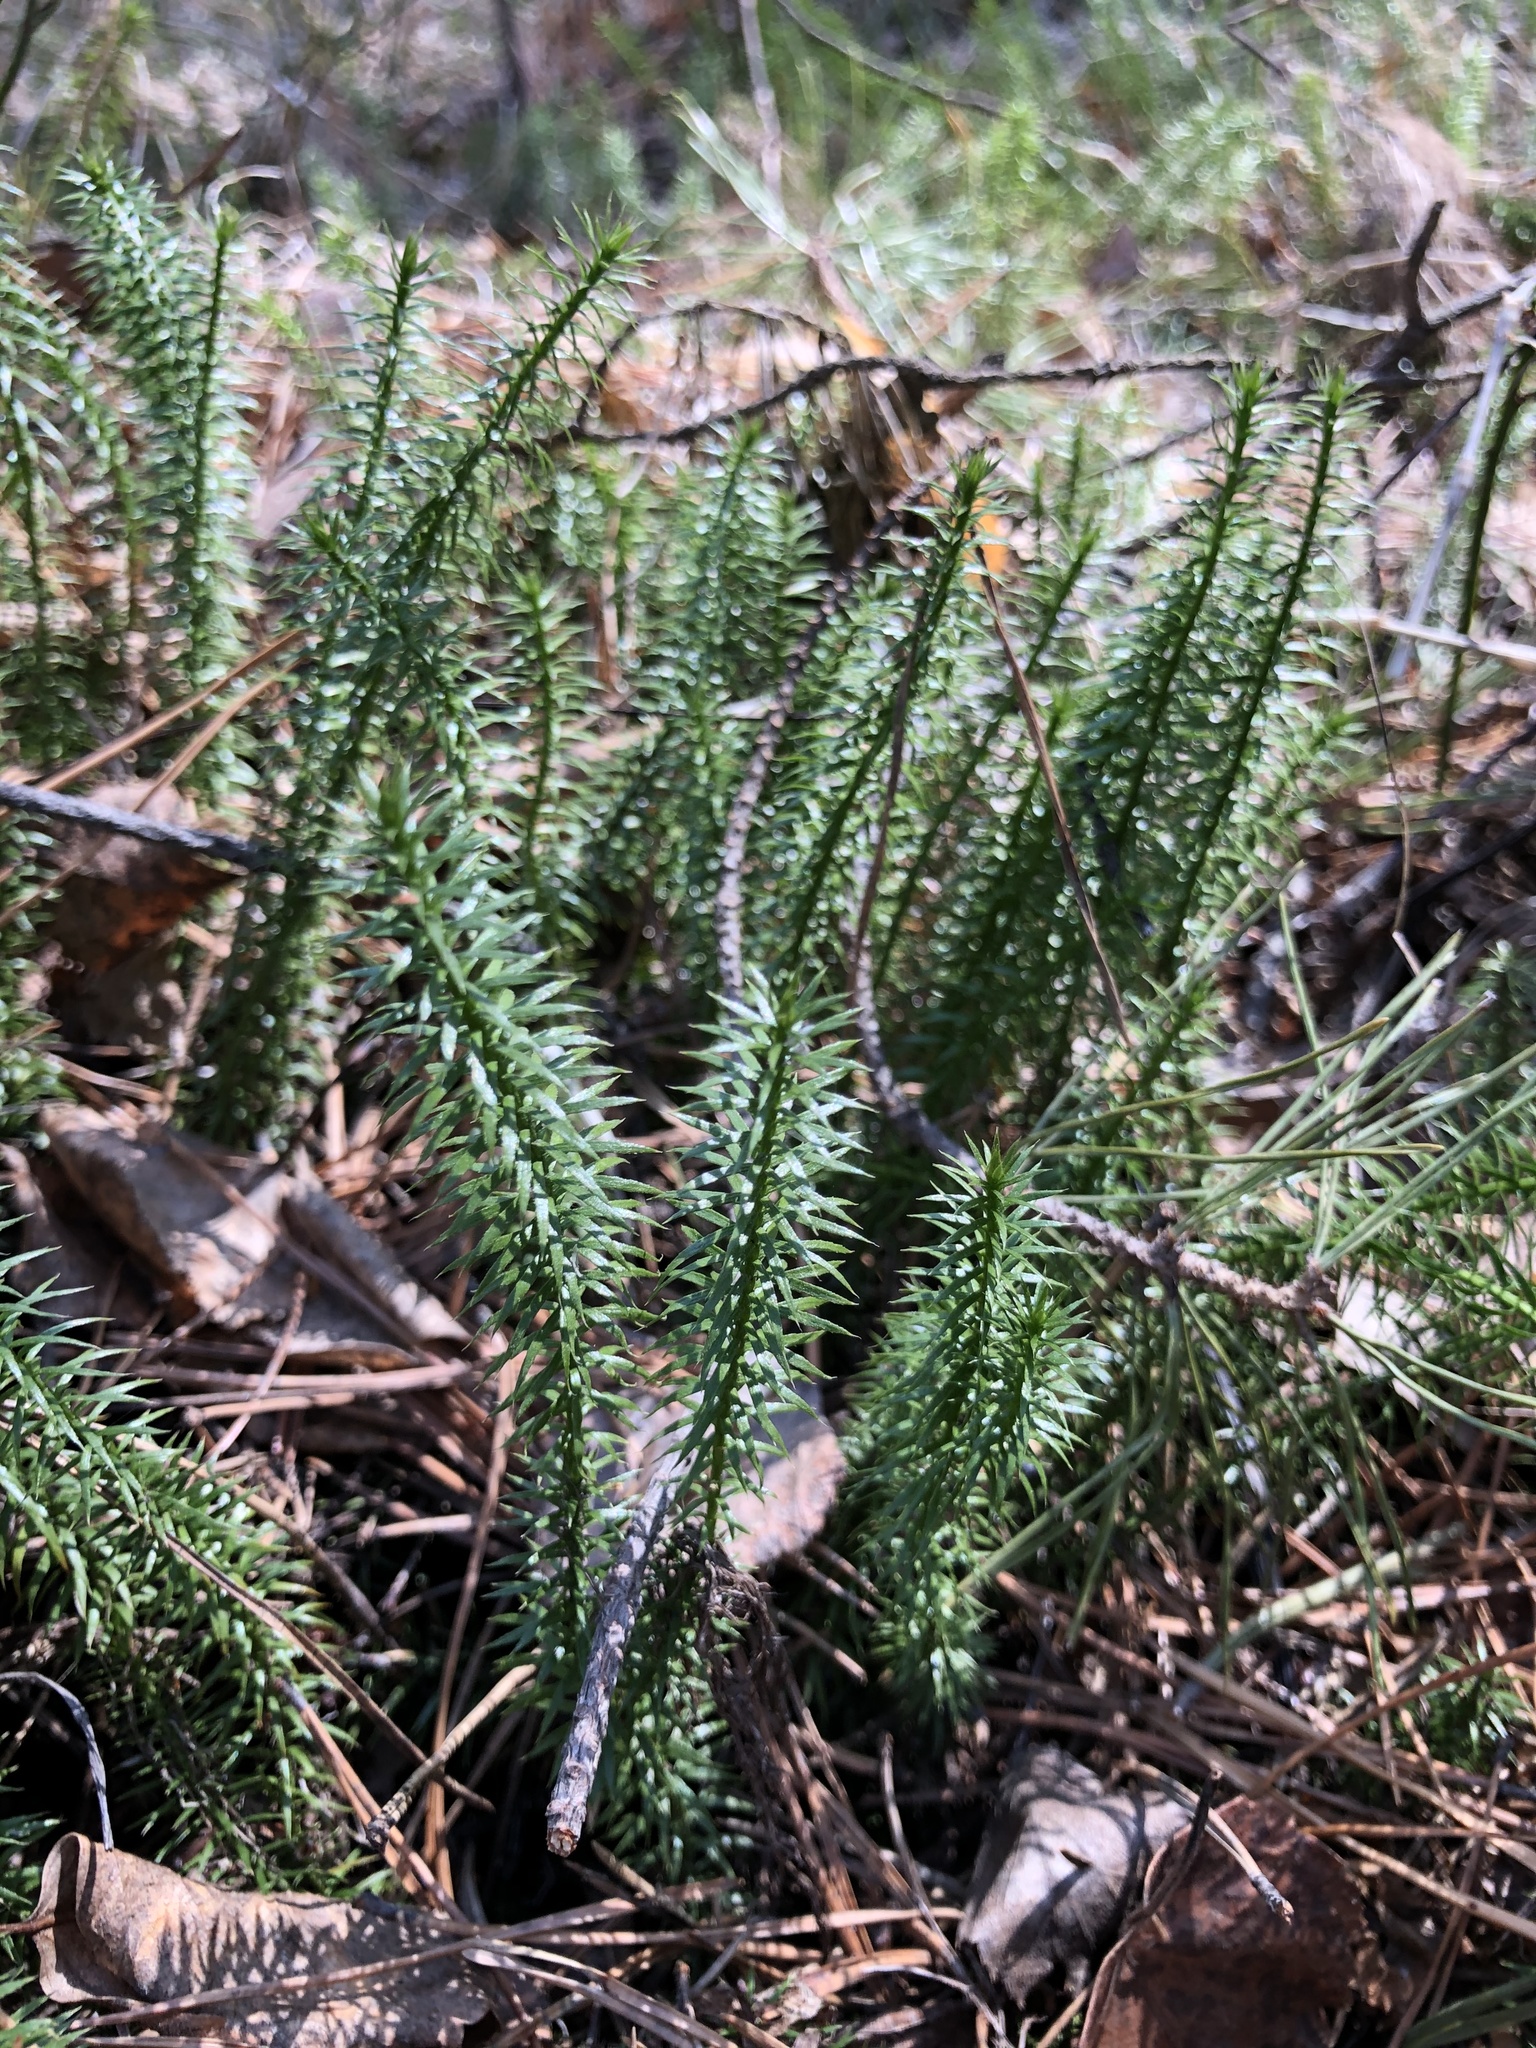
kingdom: Plantae
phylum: Tracheophyta
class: Lycopodiopsida
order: Lycopodiales
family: Lycopodiaceae
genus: Spinulum
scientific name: Spinulum annotinum
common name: Interrupted club-moss
